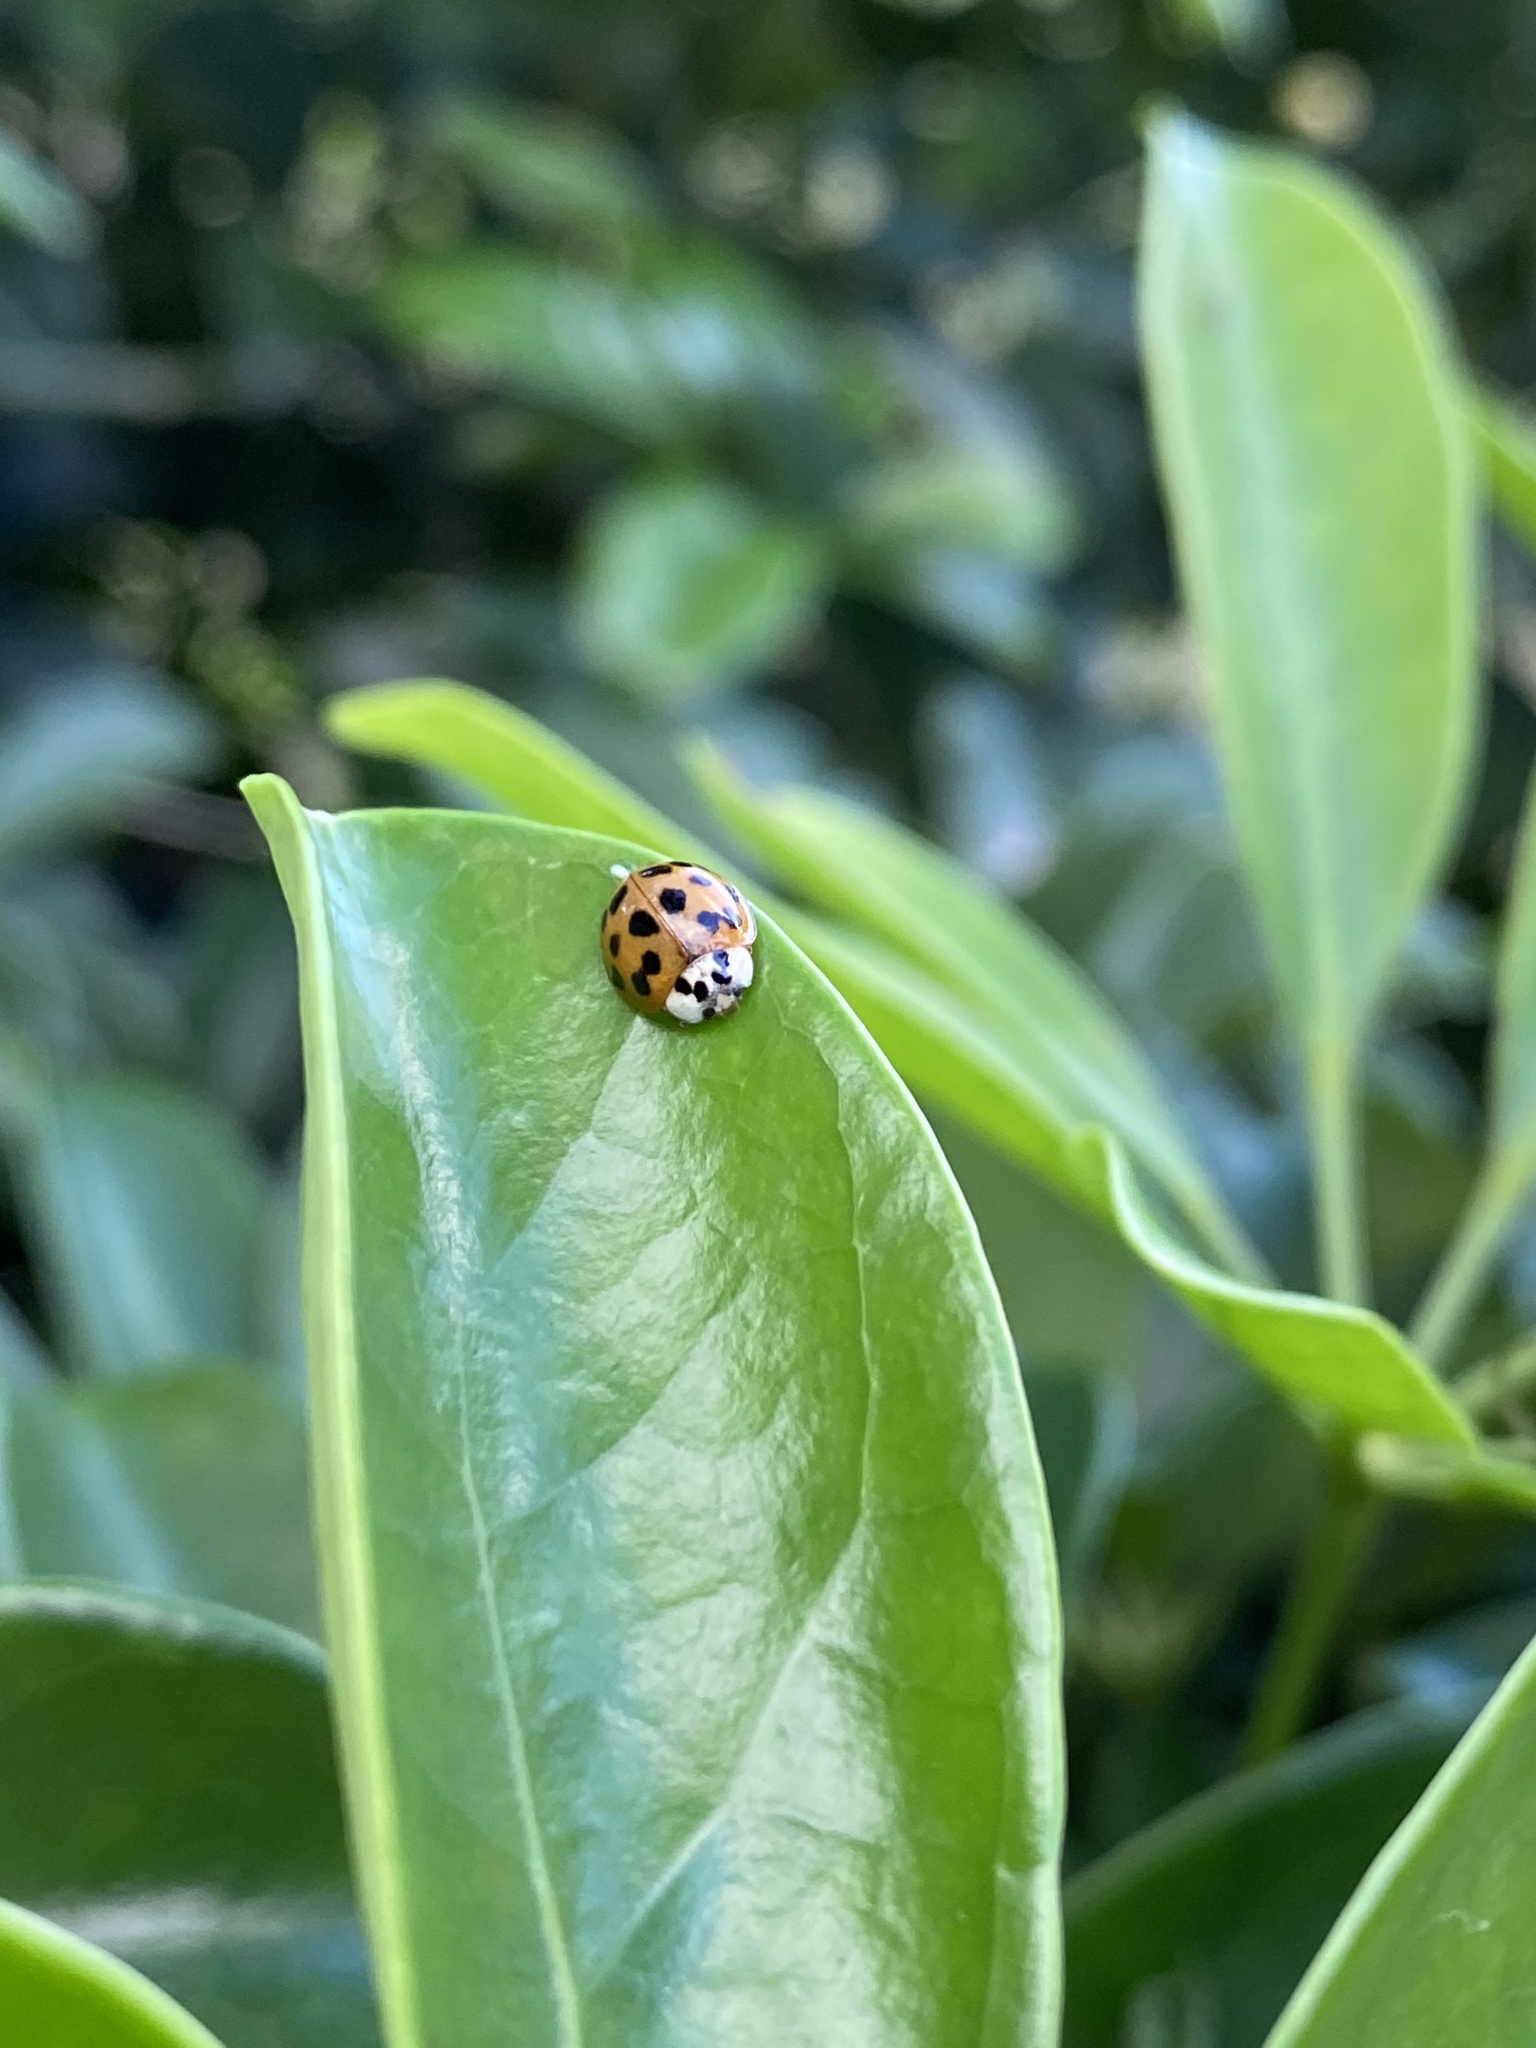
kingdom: Animalia
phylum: Arthropoda
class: Insecta
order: Coleoptera
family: Coccinellidae
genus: Harmonia
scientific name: Harmonia axyridis
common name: Harlequin ladybird
